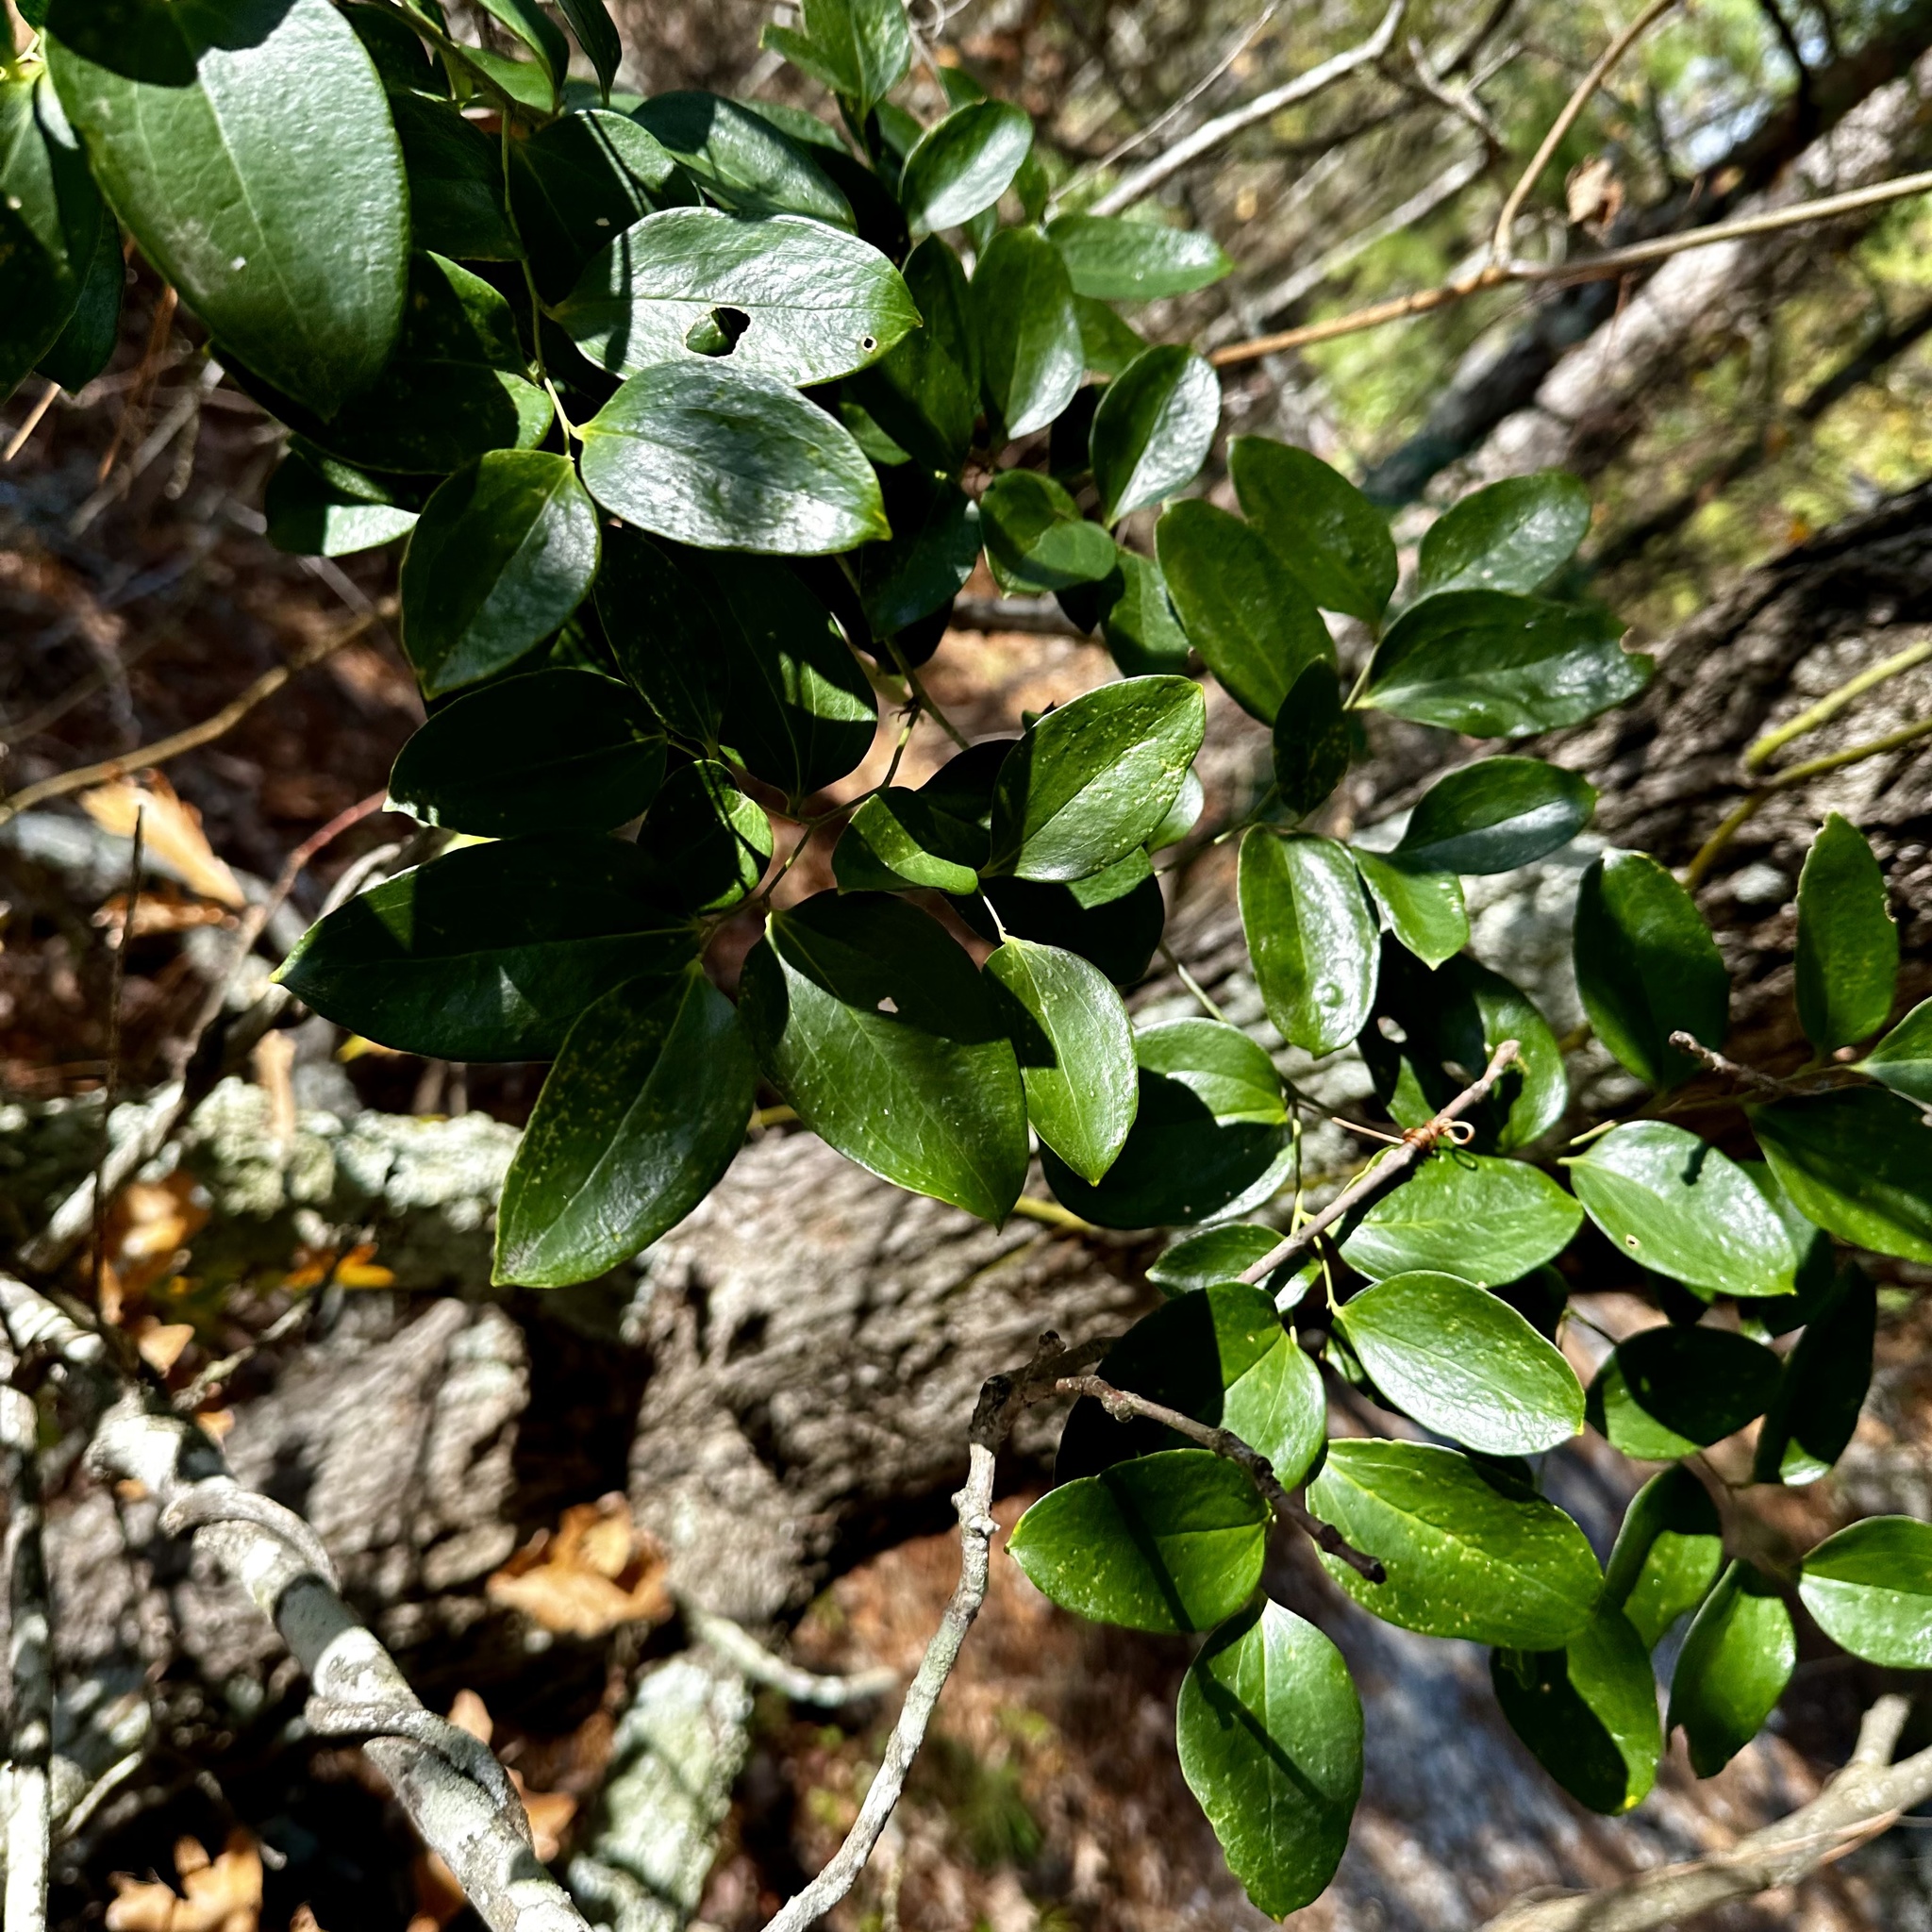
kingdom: Plantae
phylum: Tracheophyta
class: Liliopsida
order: Liliales
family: Smilacaceae
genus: Smilax
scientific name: Smilax maritima
